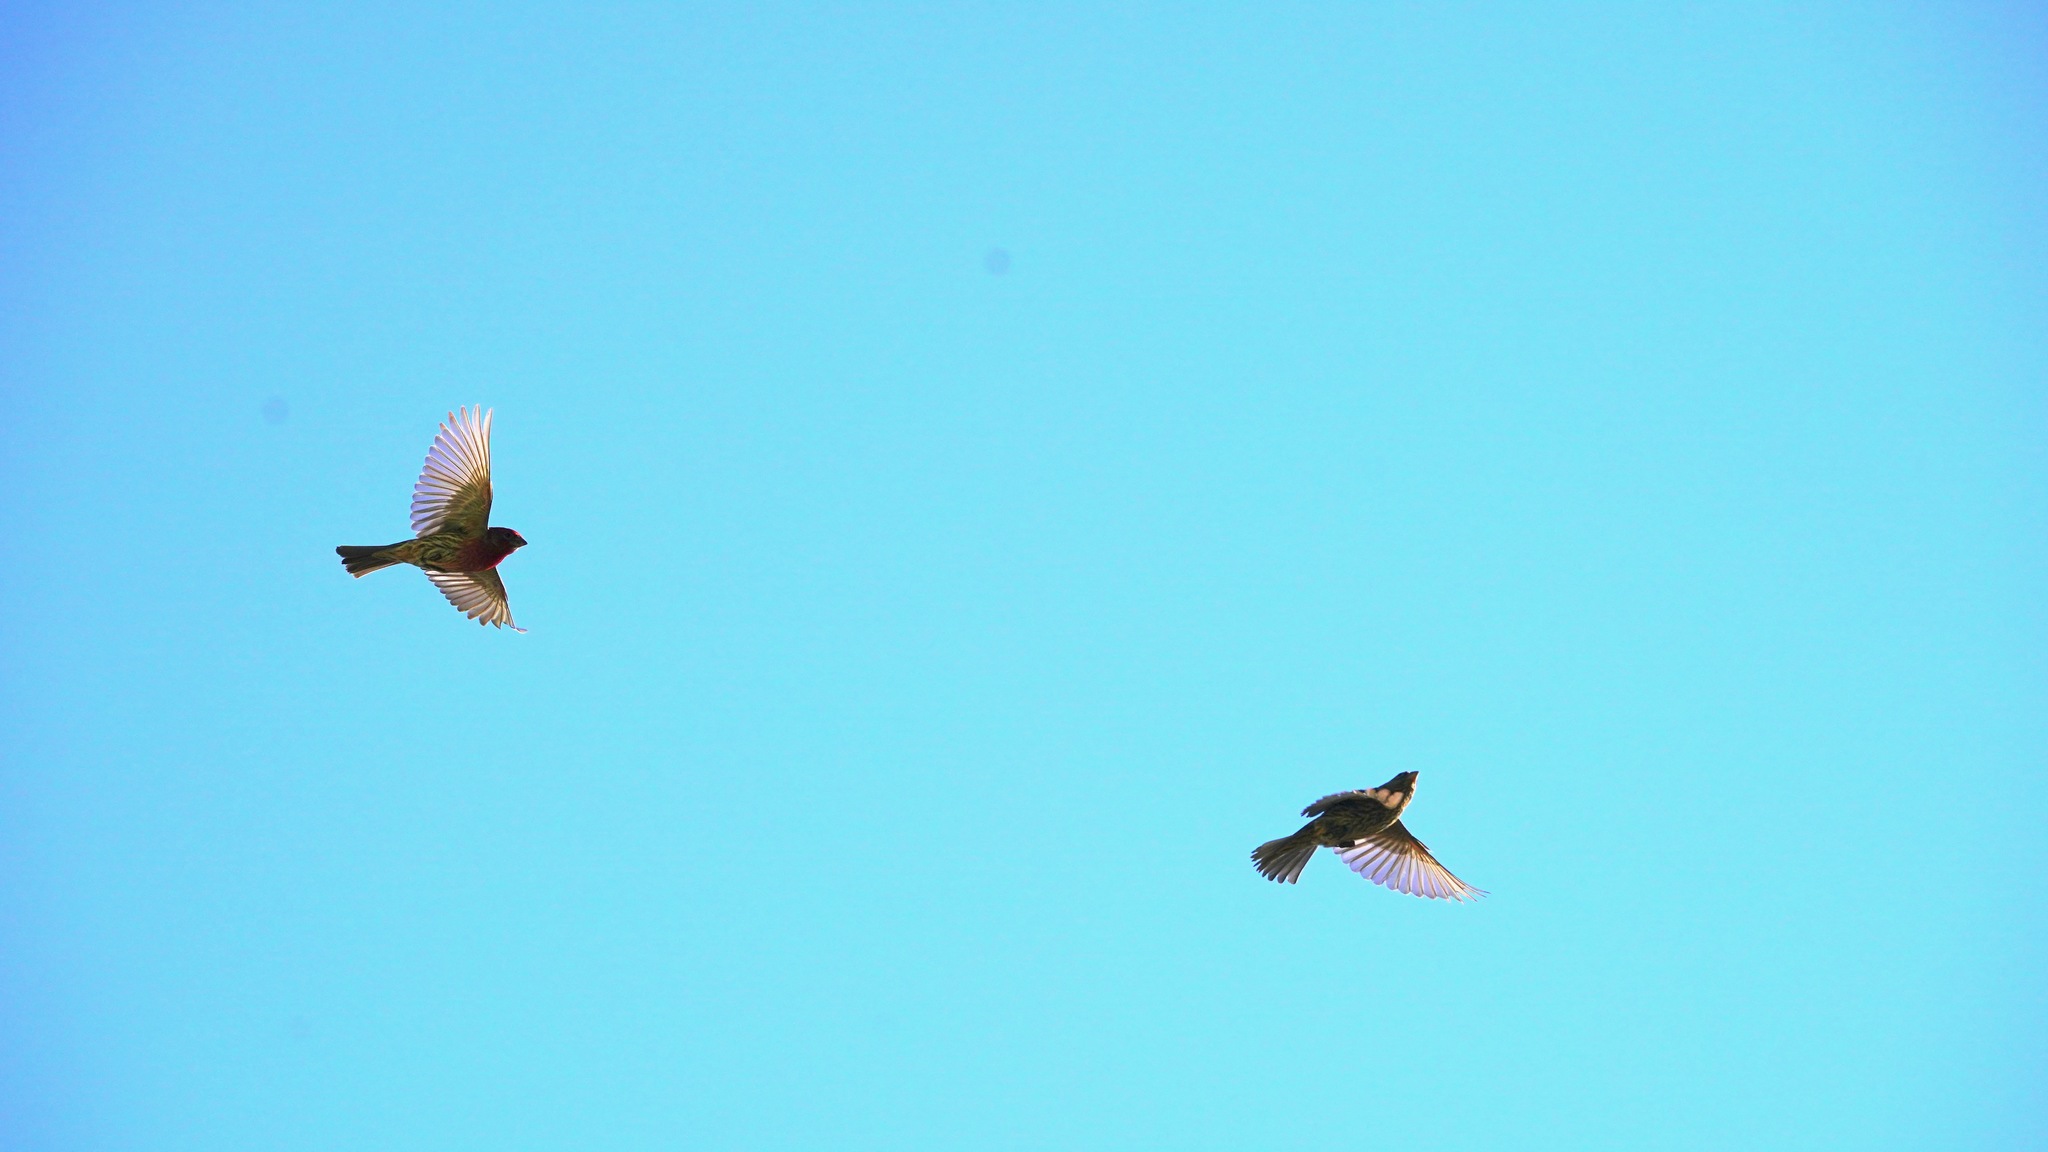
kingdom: Animalia
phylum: Chordata
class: Aves
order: Passeriformes
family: Fringillidae
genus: Haemorhous
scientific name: Haemorhous mexicanus
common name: House finch
